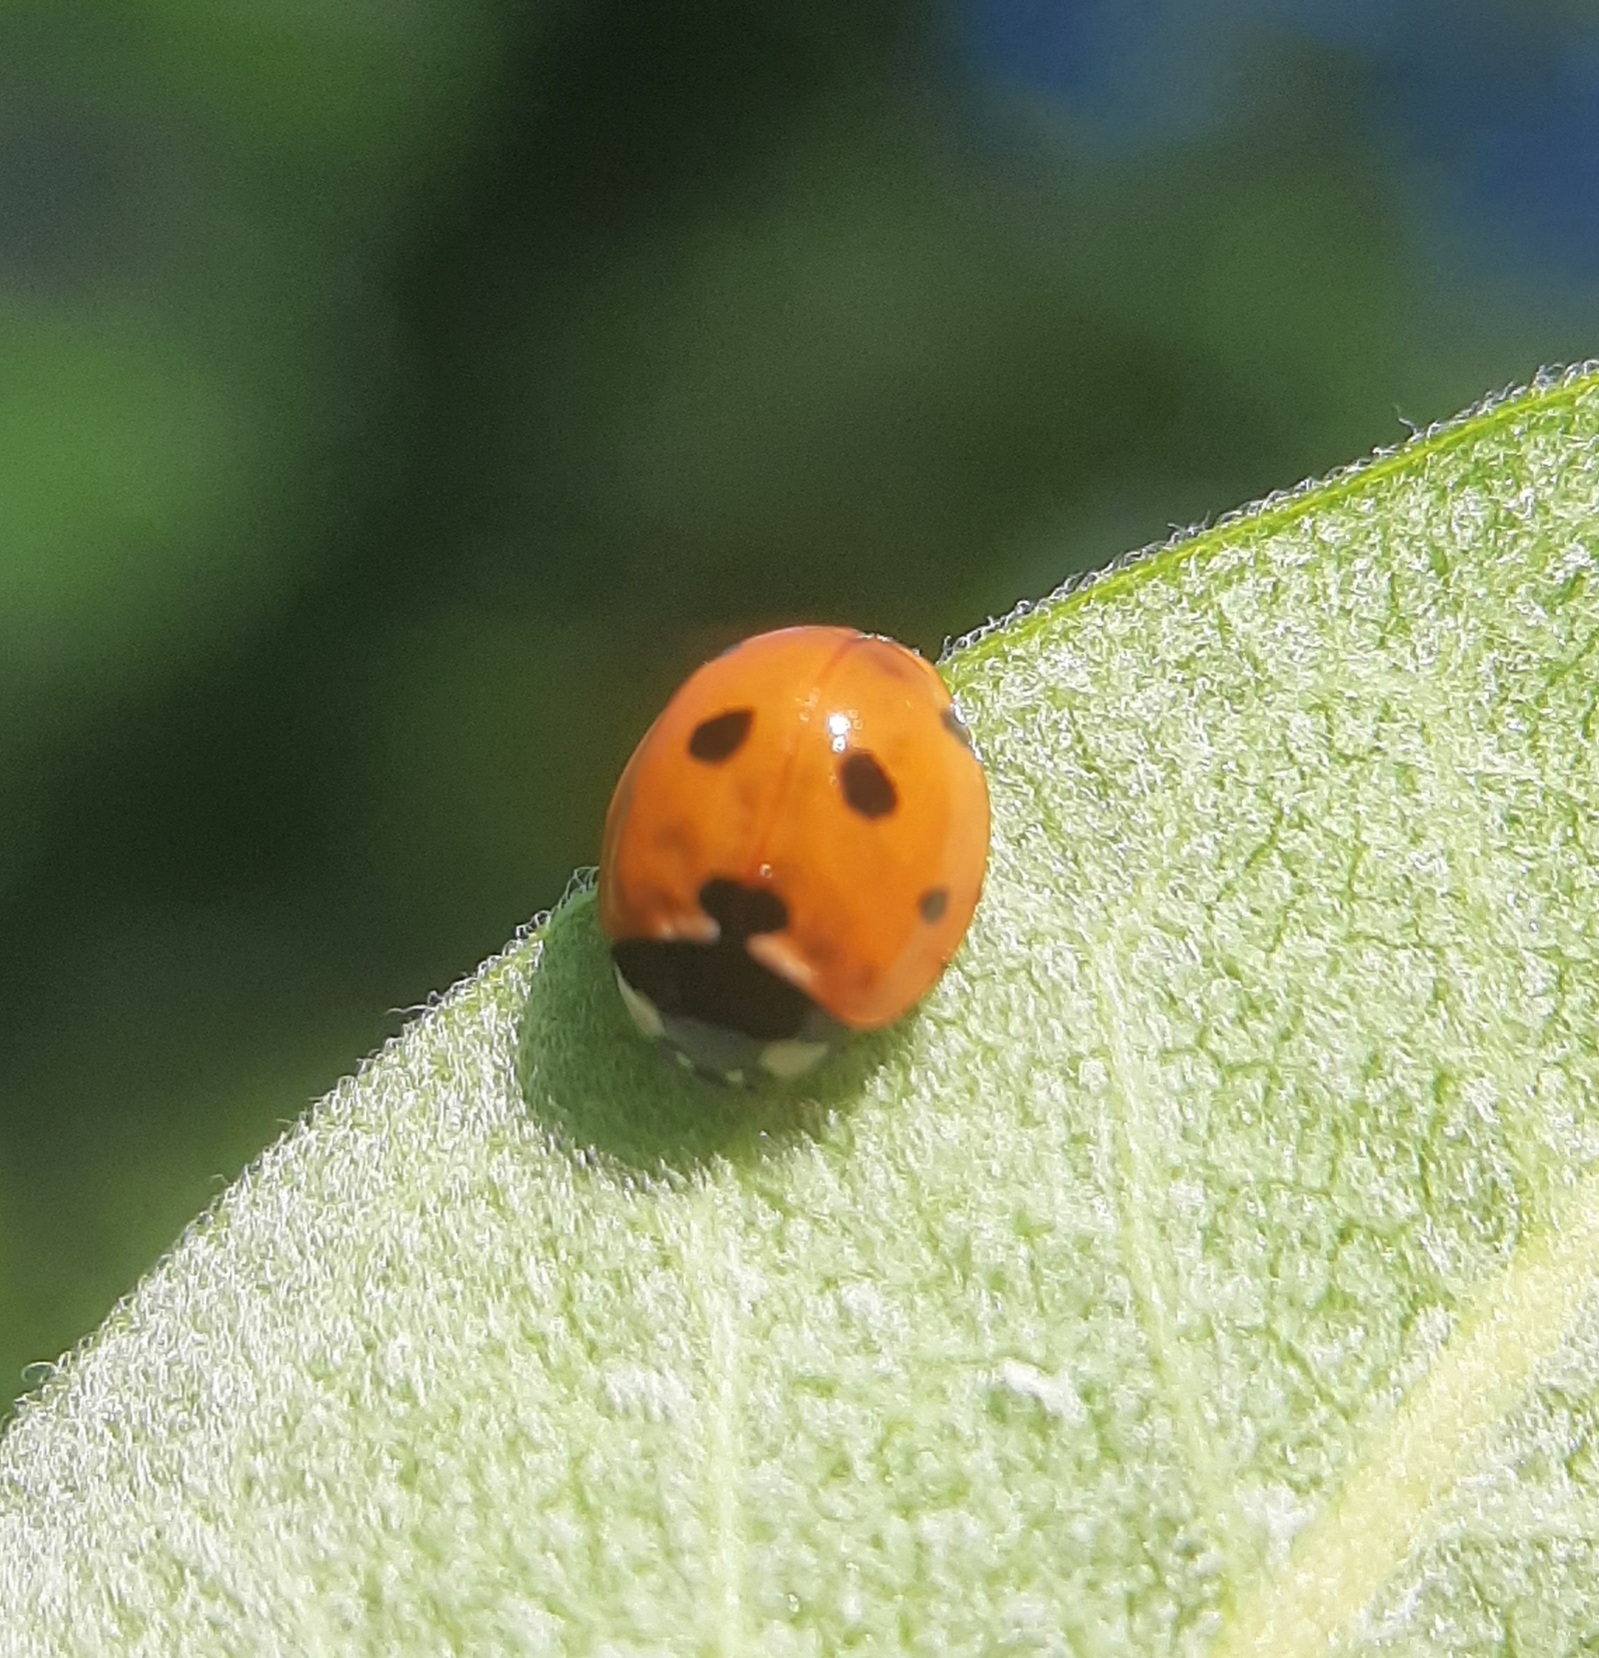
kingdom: Animalia
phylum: Arthropoda
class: Insecta
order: Coleoptera
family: Coccinellidae
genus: Coccinella
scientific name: Coccinella septempunctata
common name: Sevenspotted lady beetle
